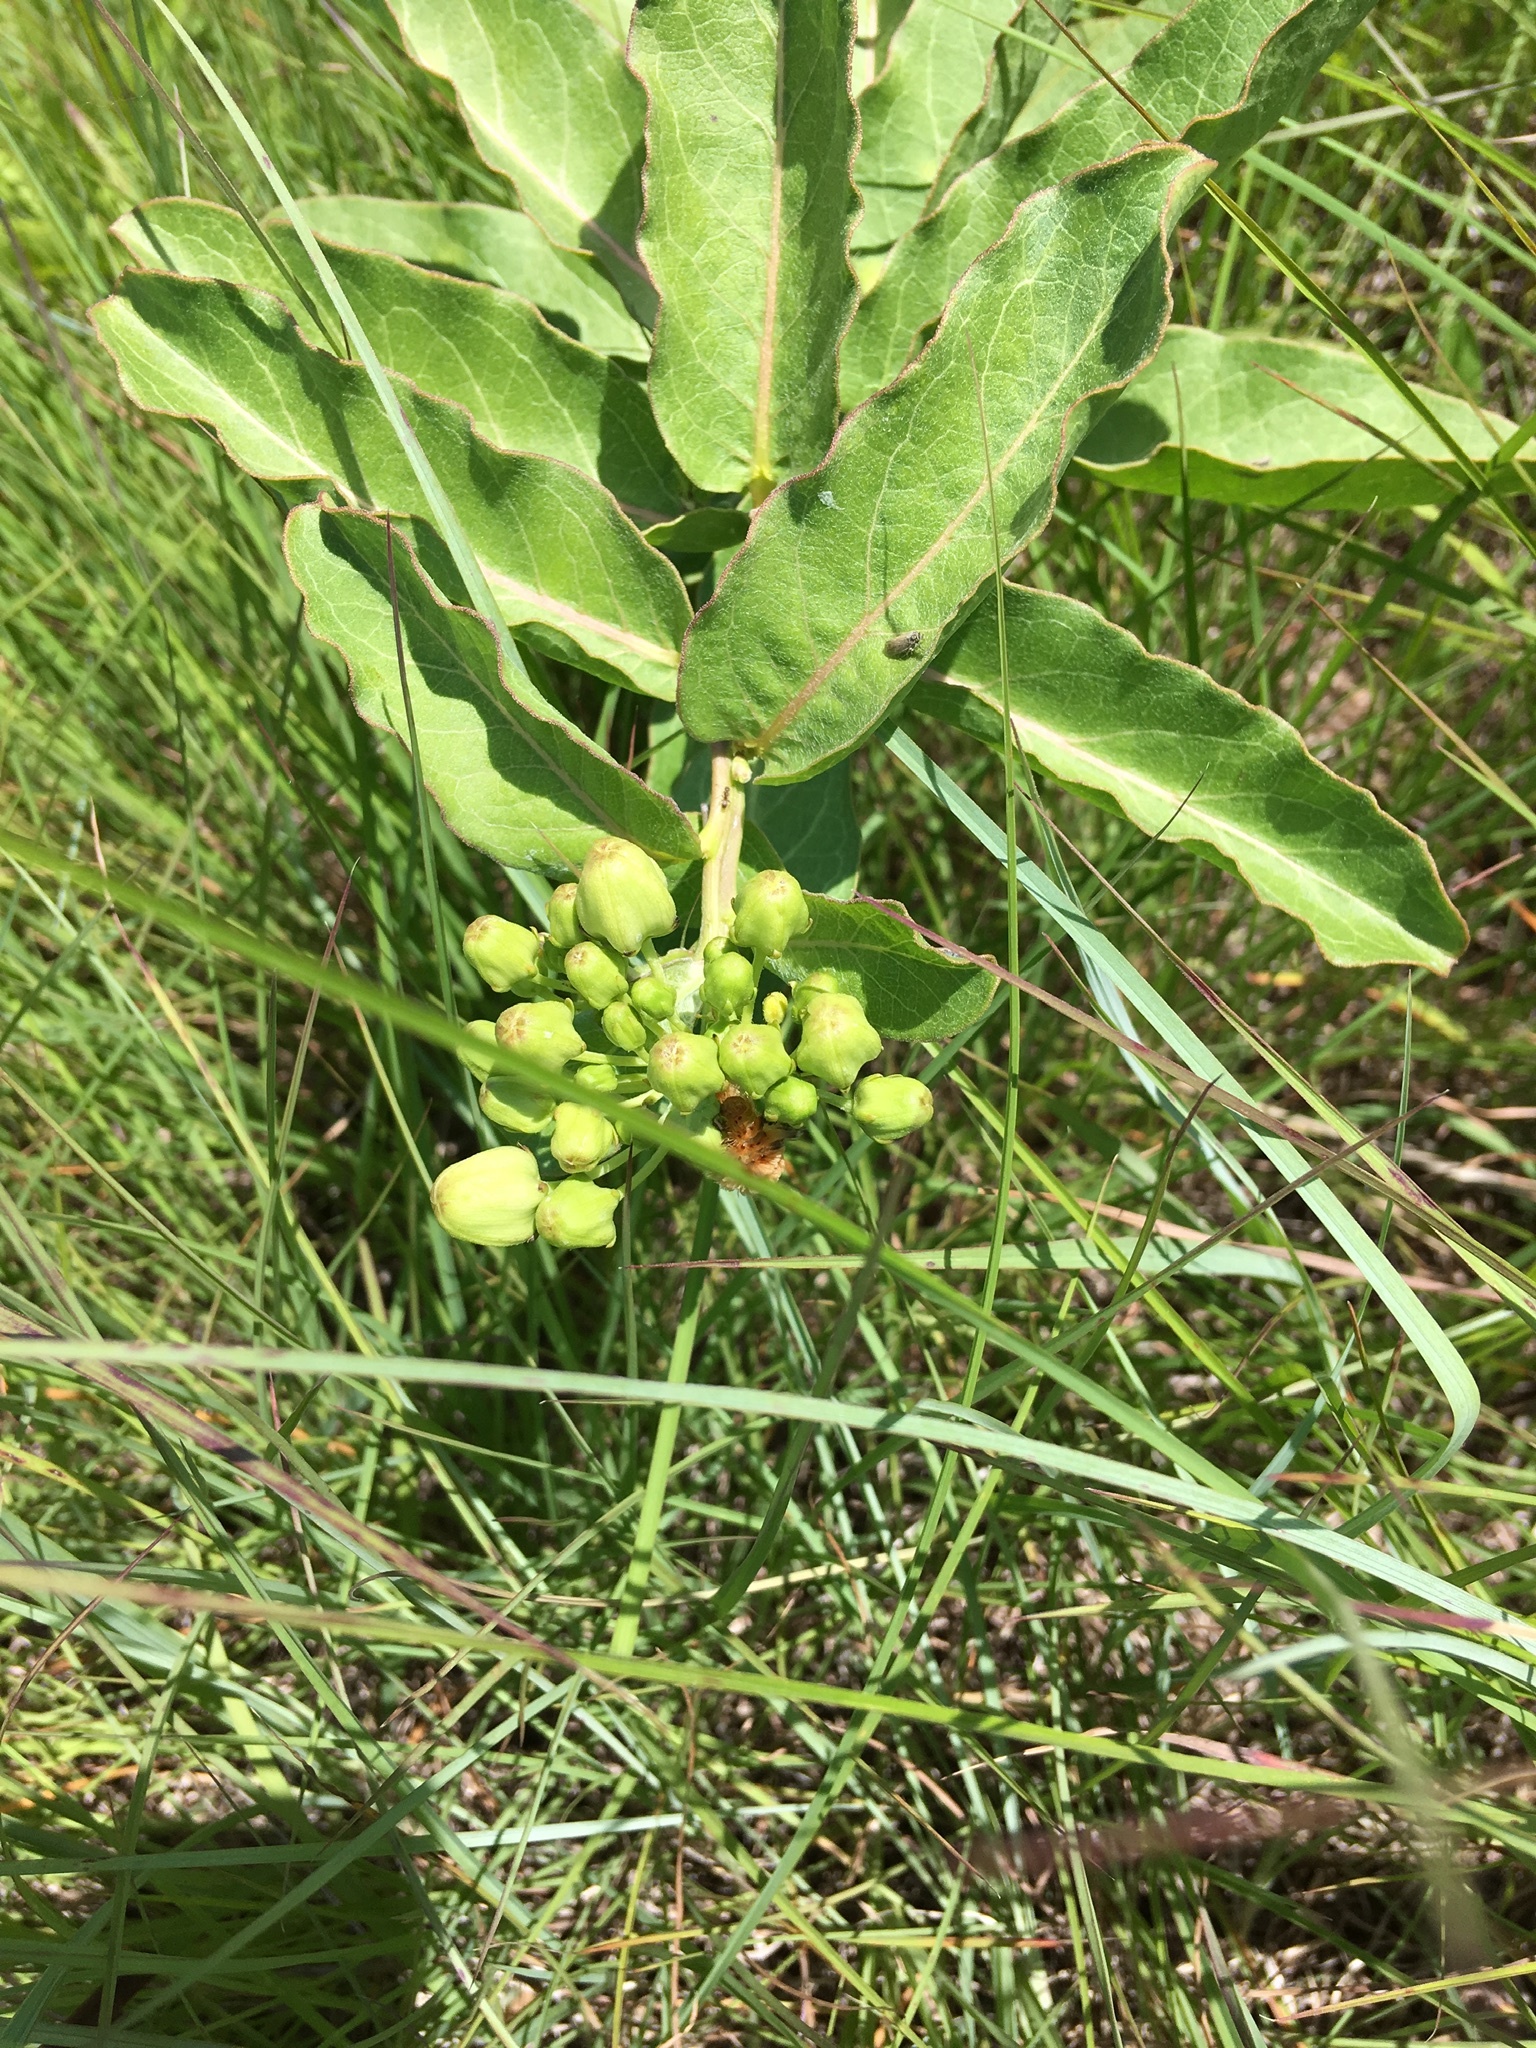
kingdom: Plantae
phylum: Tracheophyta
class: Magnoliopsida
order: Gentianales
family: Apocynaceae
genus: Asclepias
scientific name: Asclepias viridis
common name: Antelope-horns
